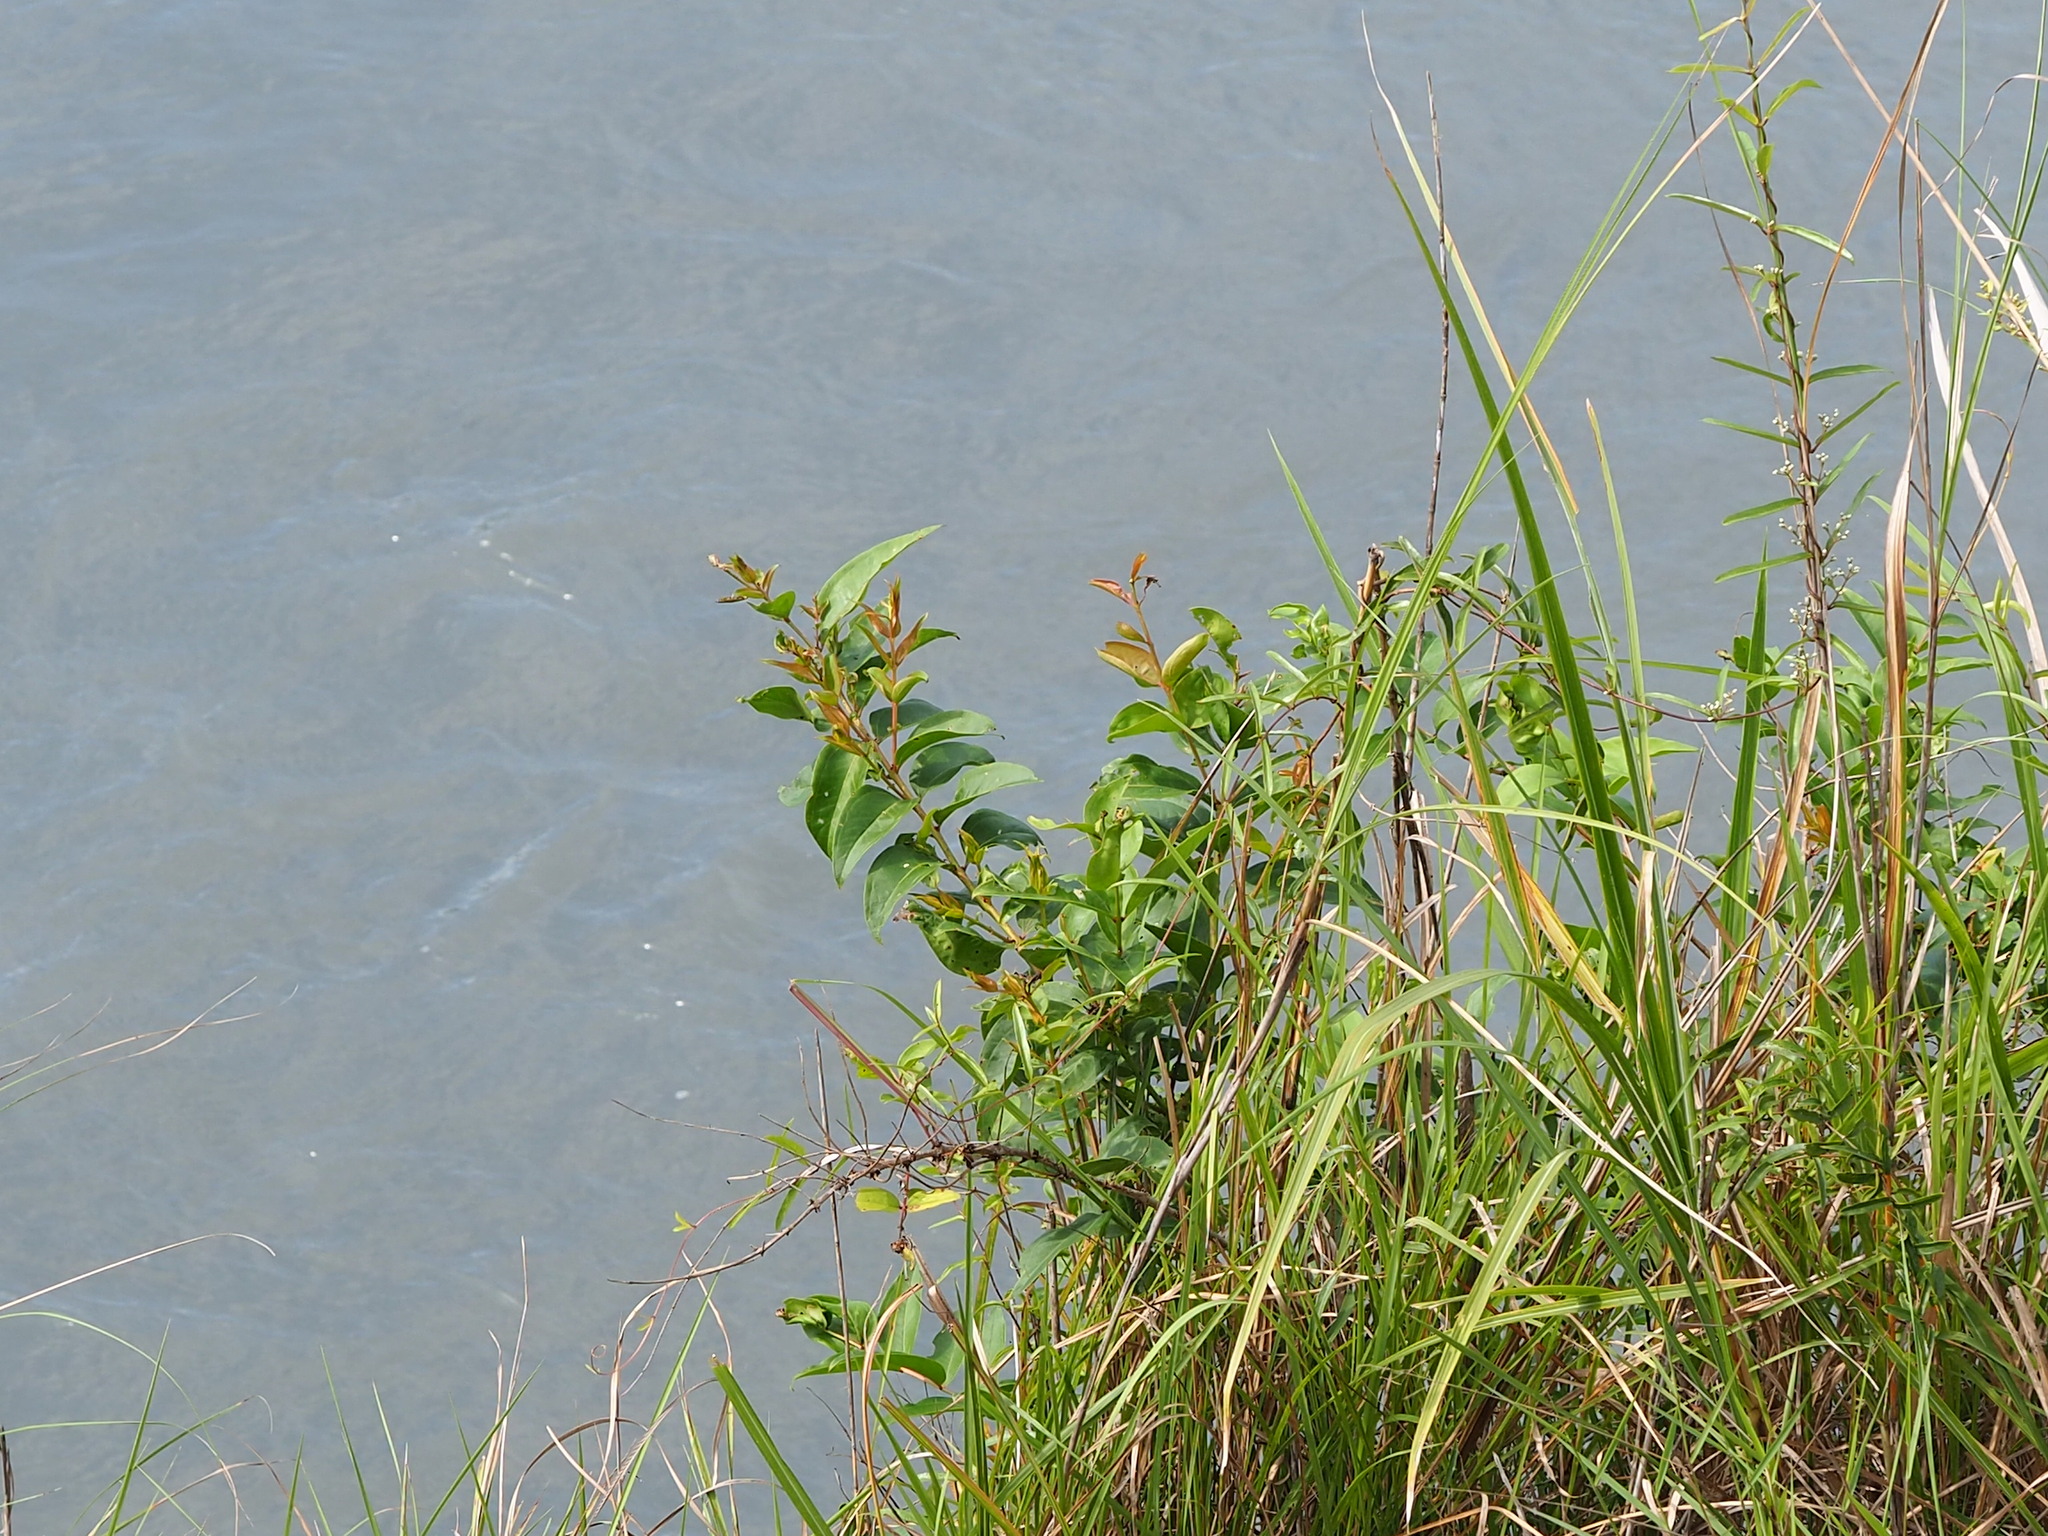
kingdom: Plantae
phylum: Tracheophyta
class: Magnoliopsida
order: Cucurbitales
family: Coriariaceae
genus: Coriaria
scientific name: Coriaria japonica
